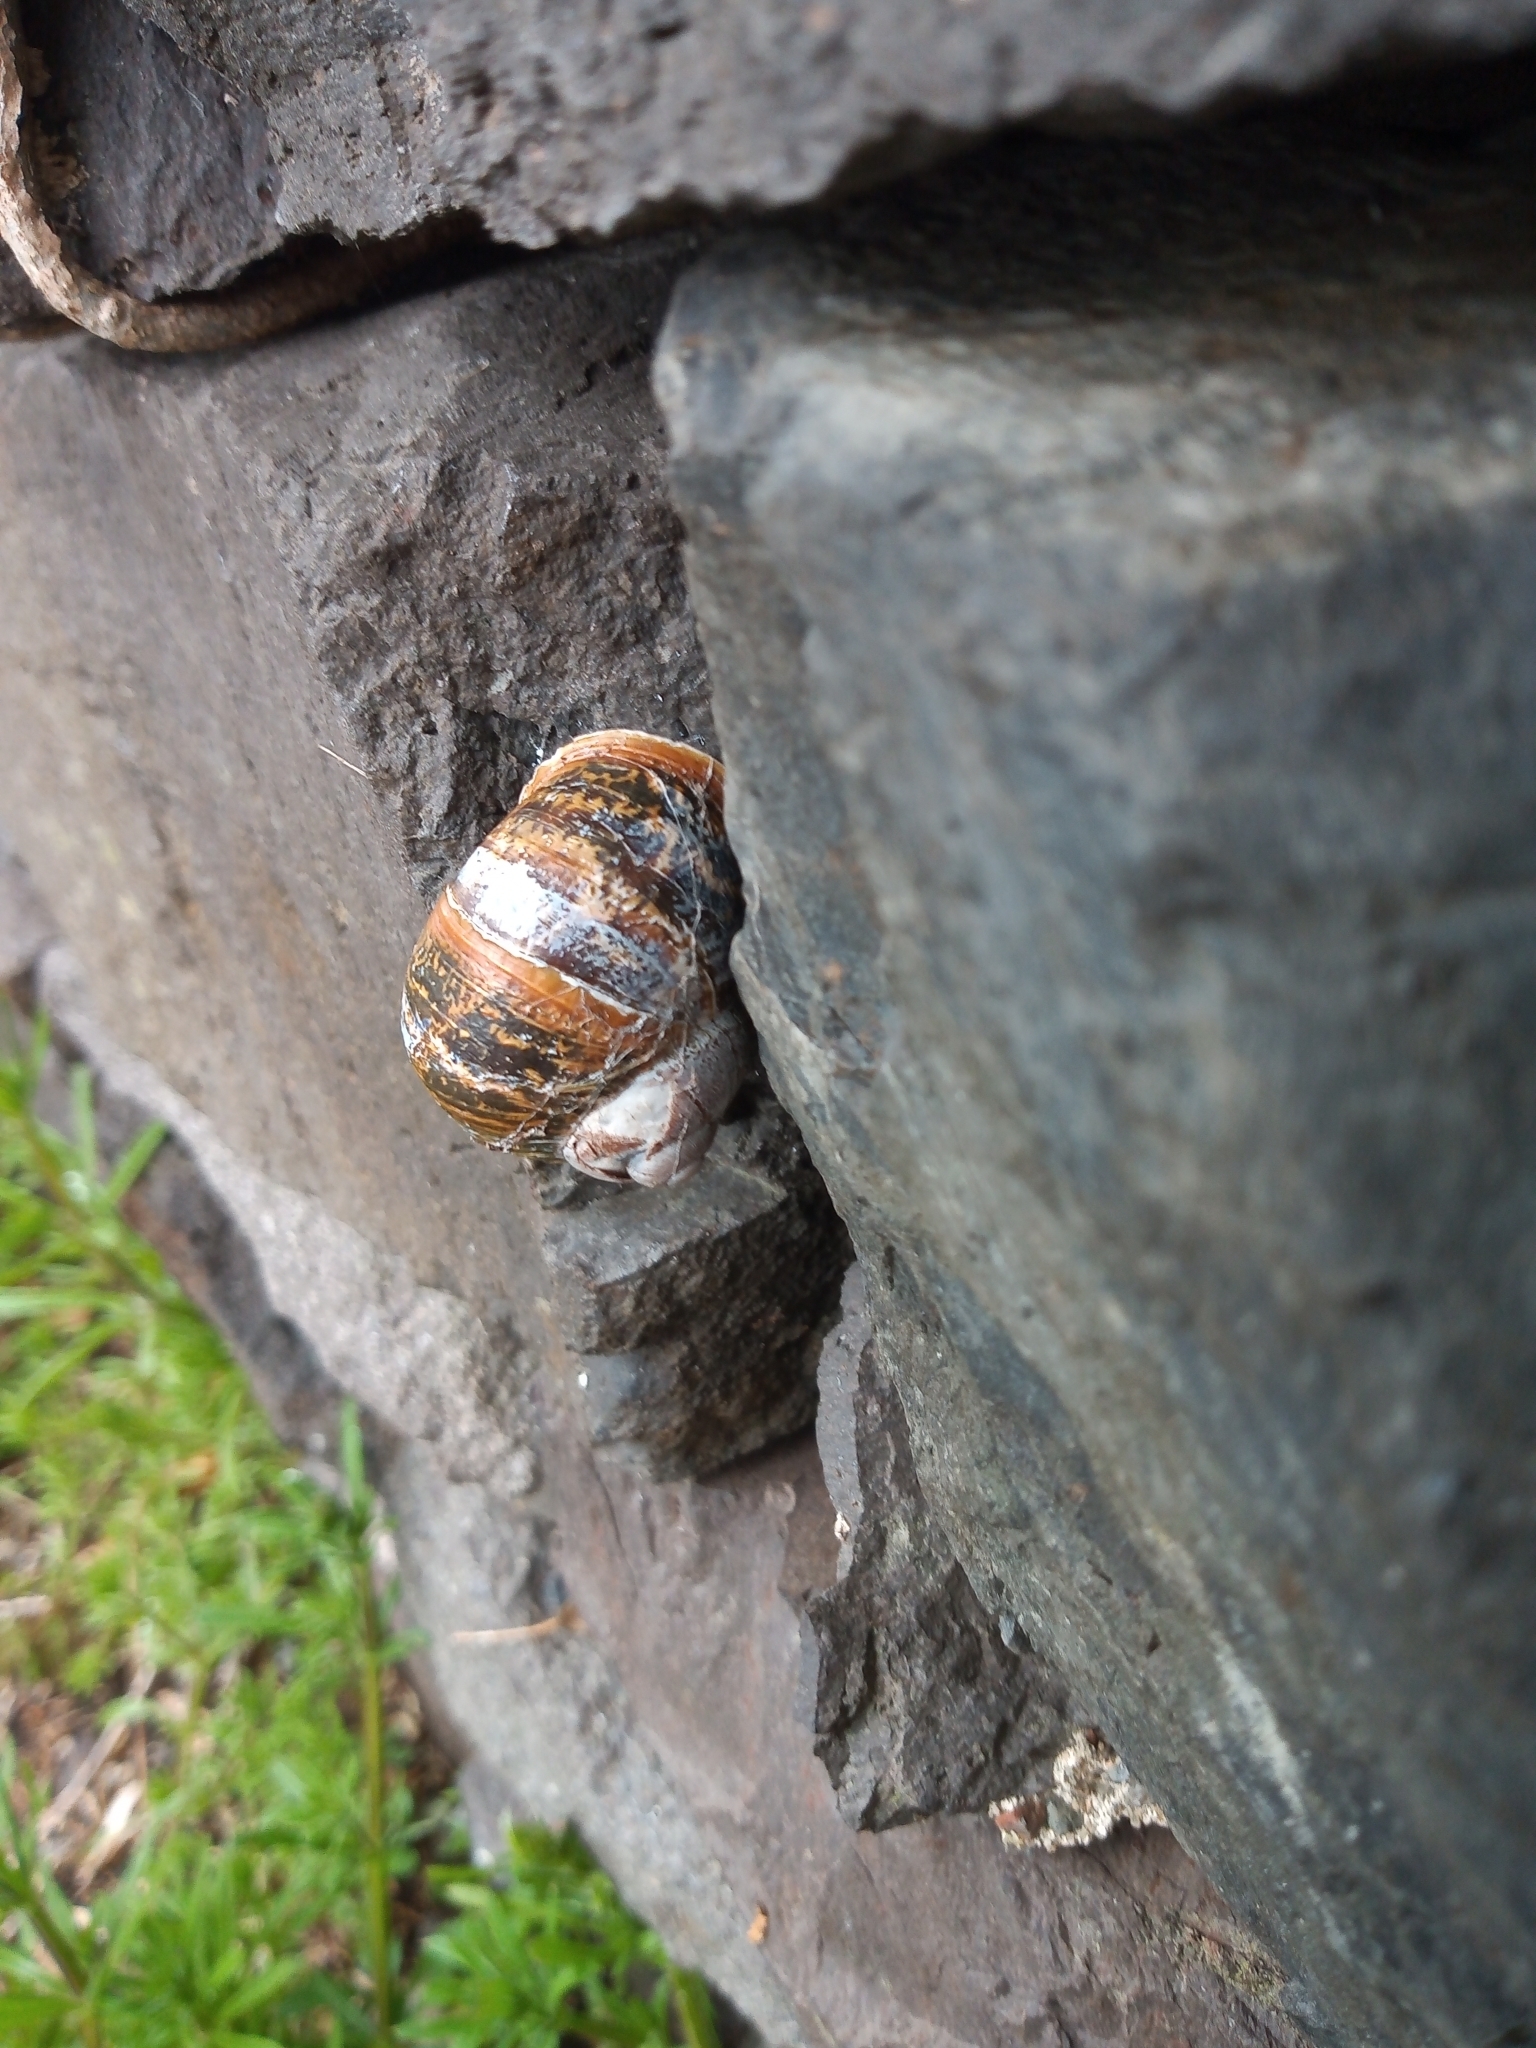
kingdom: Animalia
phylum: Mollusca
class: Gastropoda
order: Stylommatophora
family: Helicidae
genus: Cornu
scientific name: Cornu aspersum
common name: Brown garden snail
